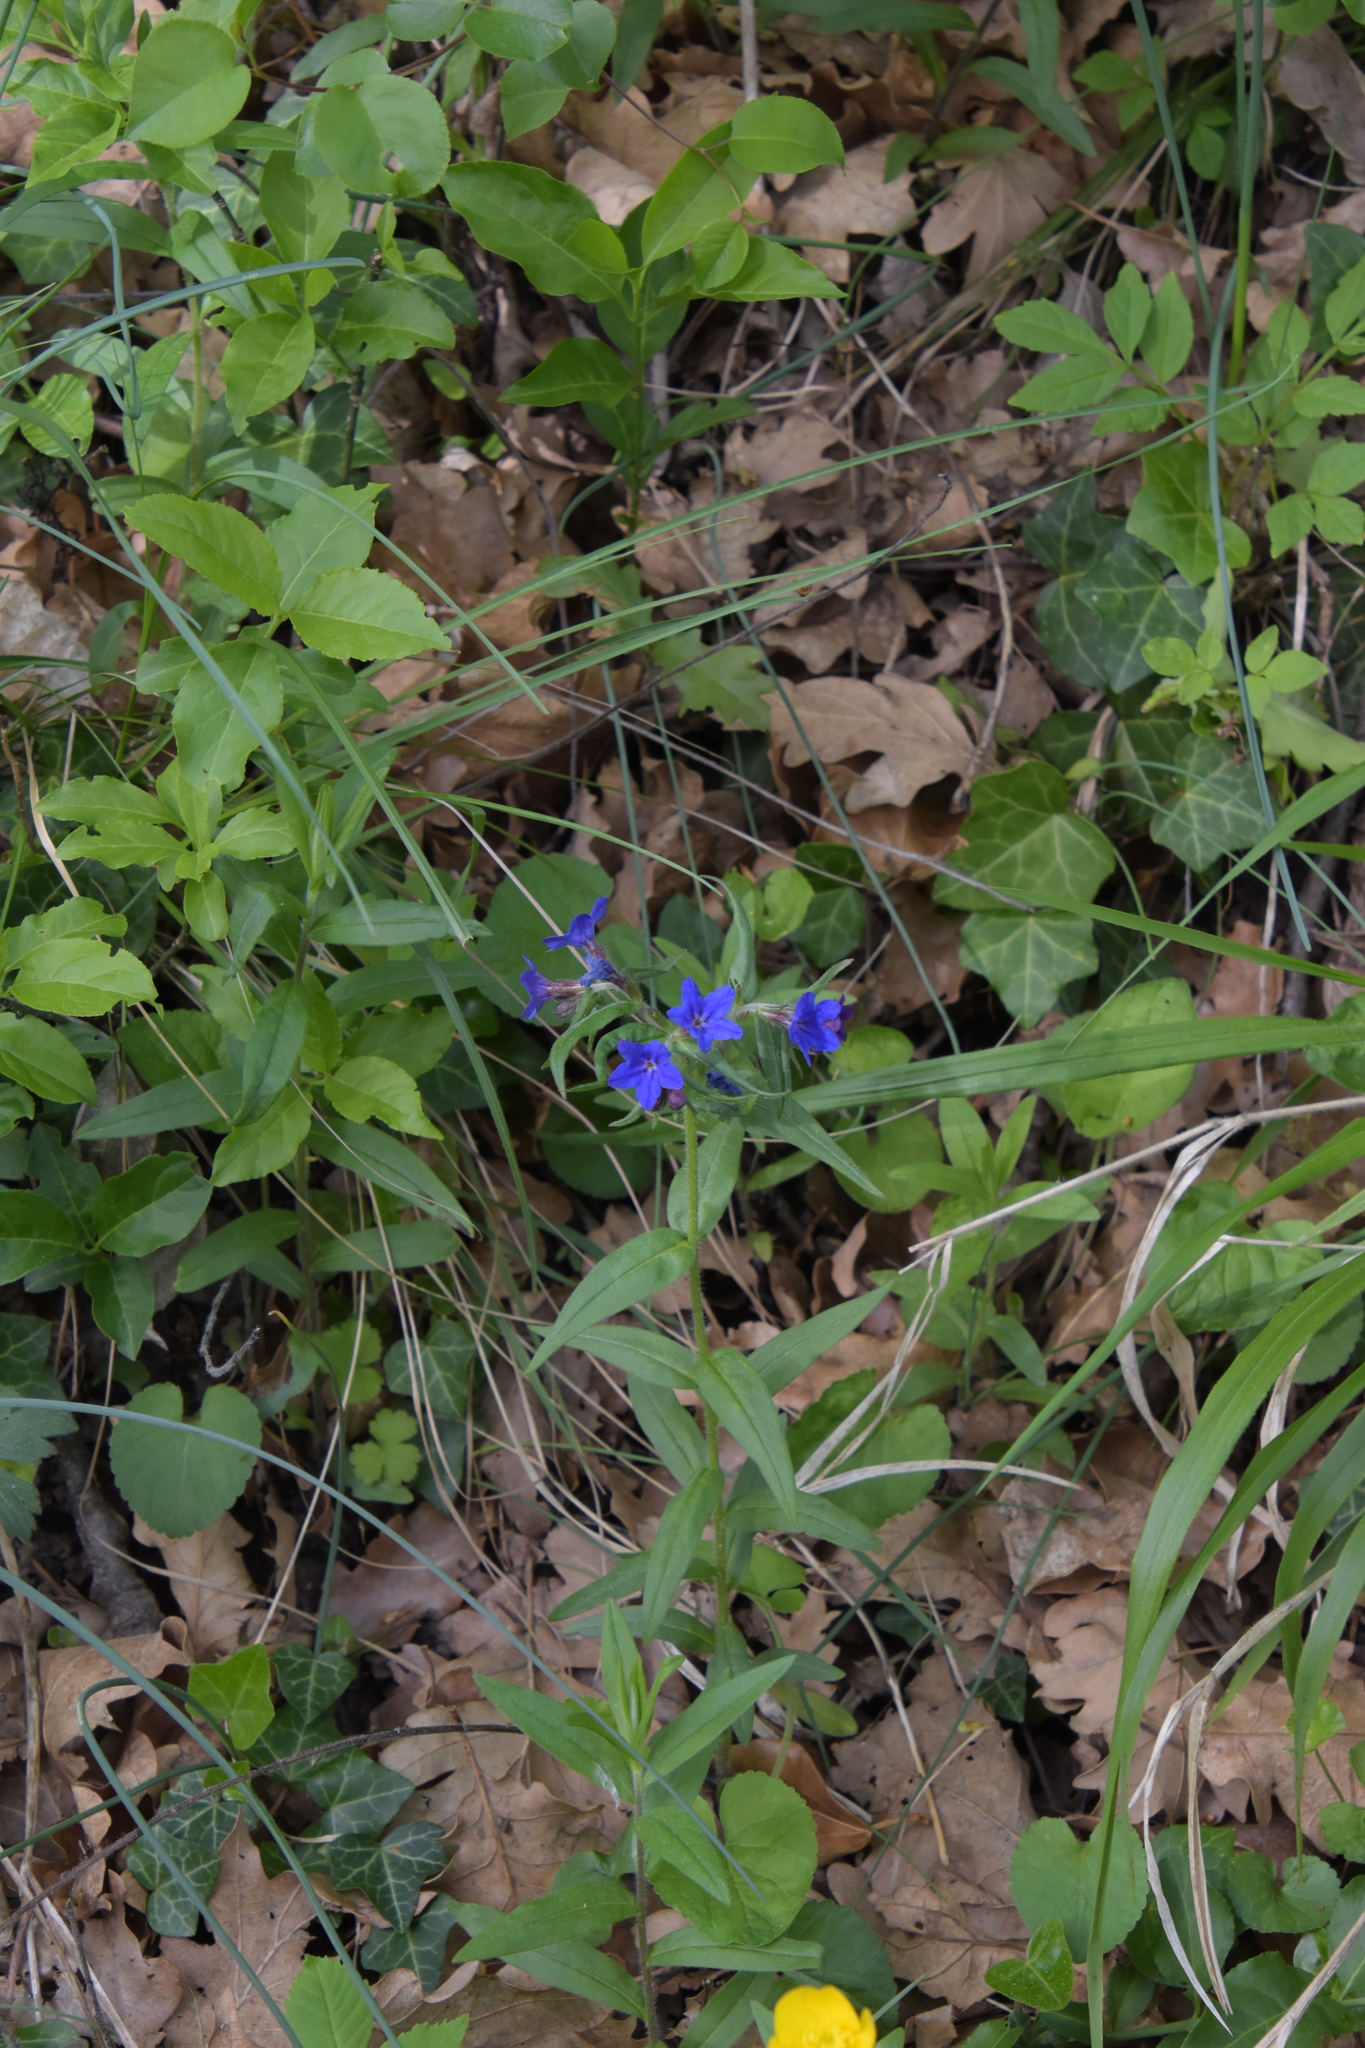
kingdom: Plantae
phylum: Tracheophyta
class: Magnoliopsida
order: Boraginales
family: Boraginaceae
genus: Aegonychon
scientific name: Aegonychon purpurocaeruleum
